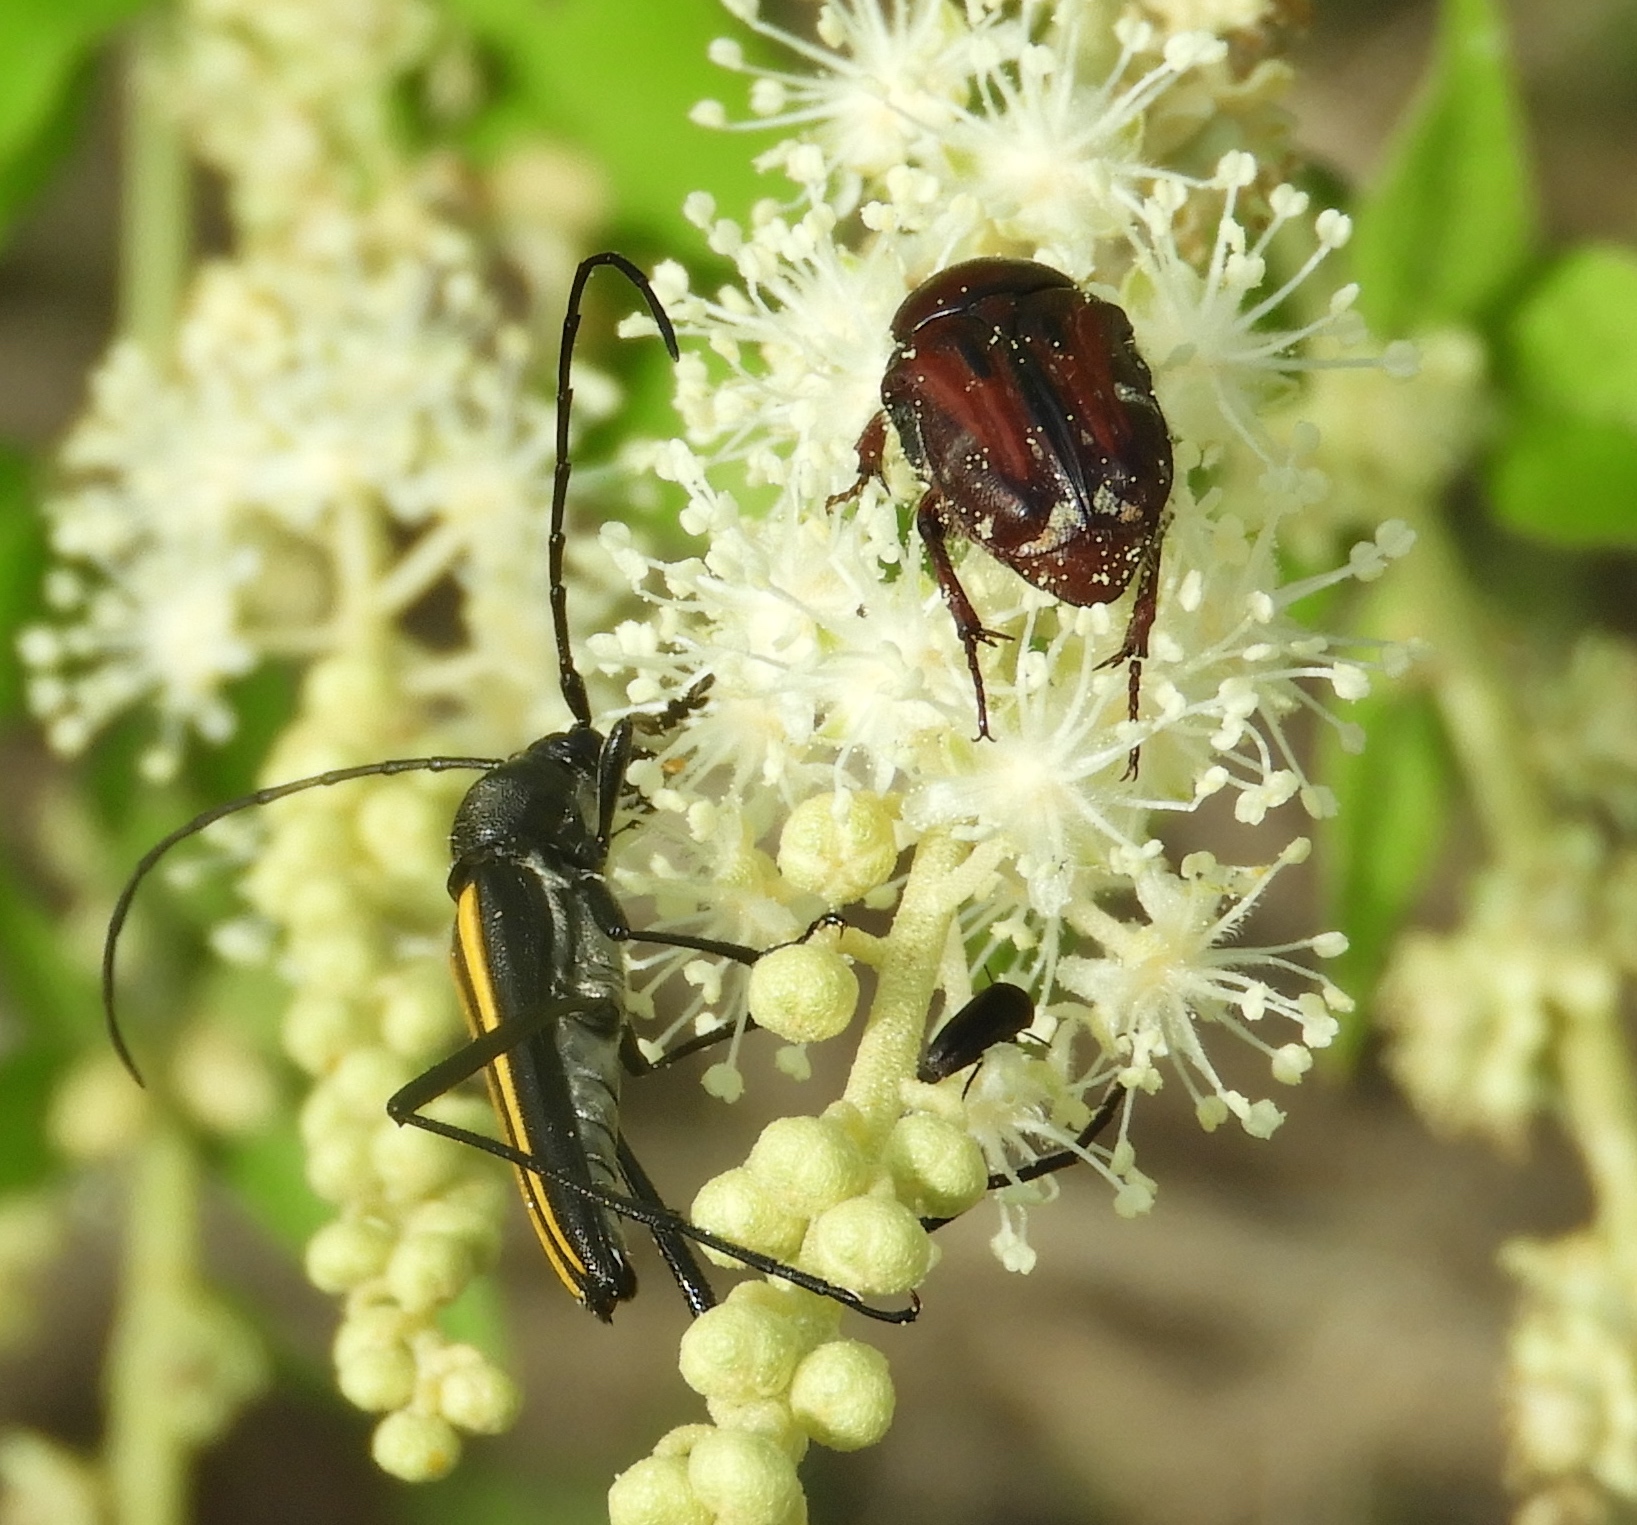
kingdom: Animalia
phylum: Arthropoda
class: Insecta
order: Coleoptera
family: Scarabaeidae
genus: Euphoria
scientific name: Euphoria pulchella
